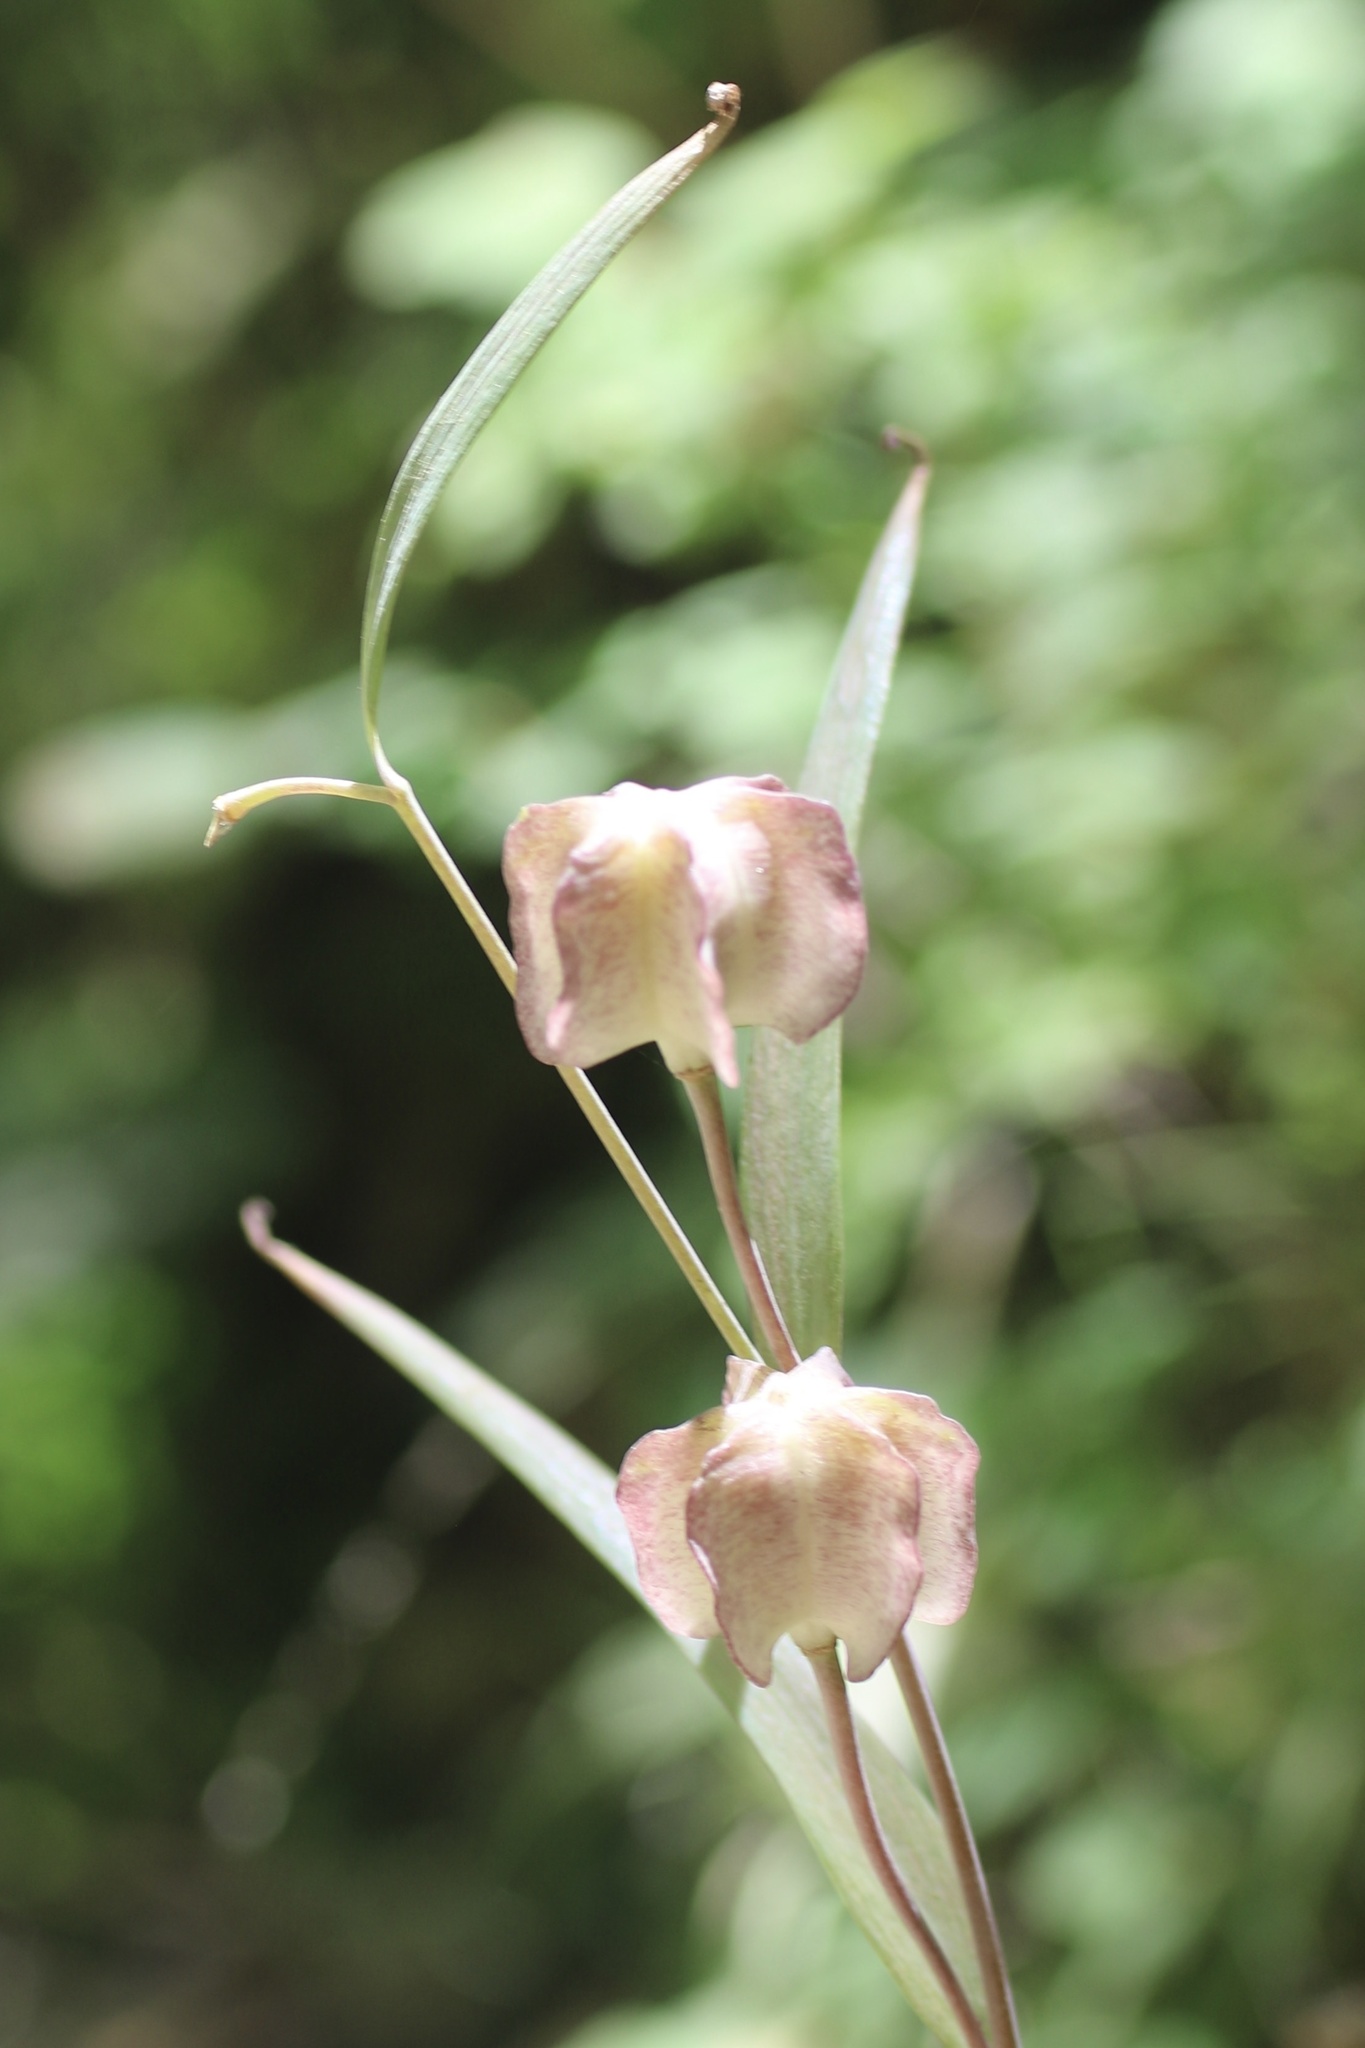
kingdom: Plantae
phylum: Tracheophyta
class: Liliopsida
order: Liliales
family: Liliaceae
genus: Fritillaria
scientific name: Fritillaria affinis
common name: Ojai fritillary
